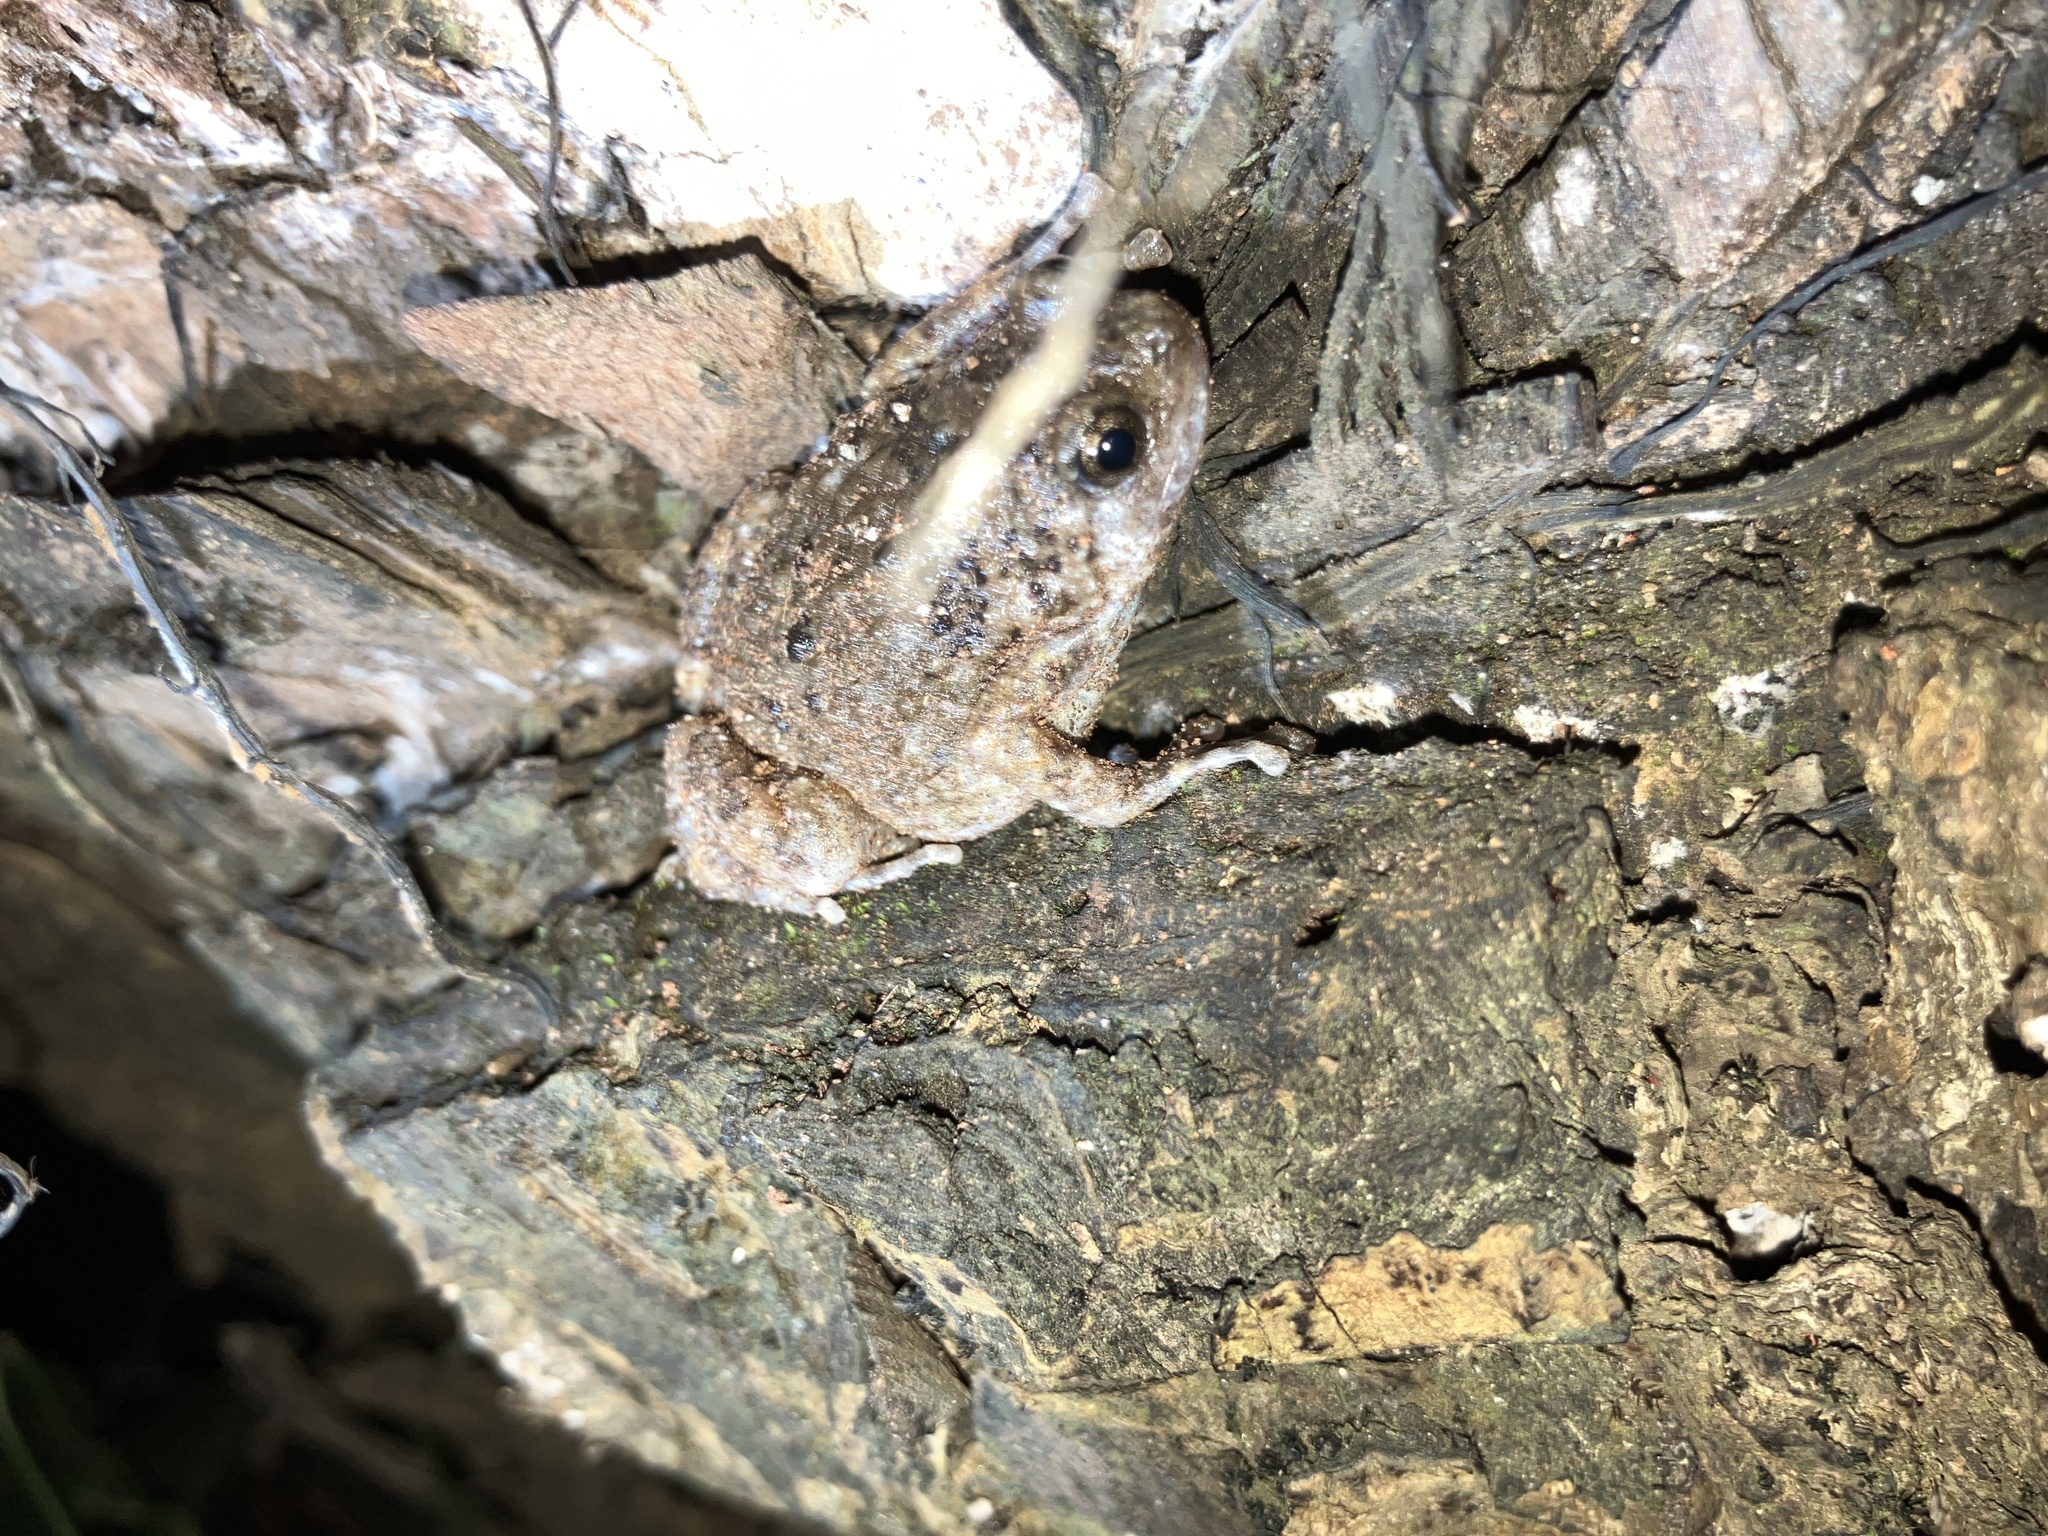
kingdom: Animalia
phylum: Chordata
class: Amphibia
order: Anura
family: Microhylidae
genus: Uperodon
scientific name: Uperodon mormoratus
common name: Indian dot frog
